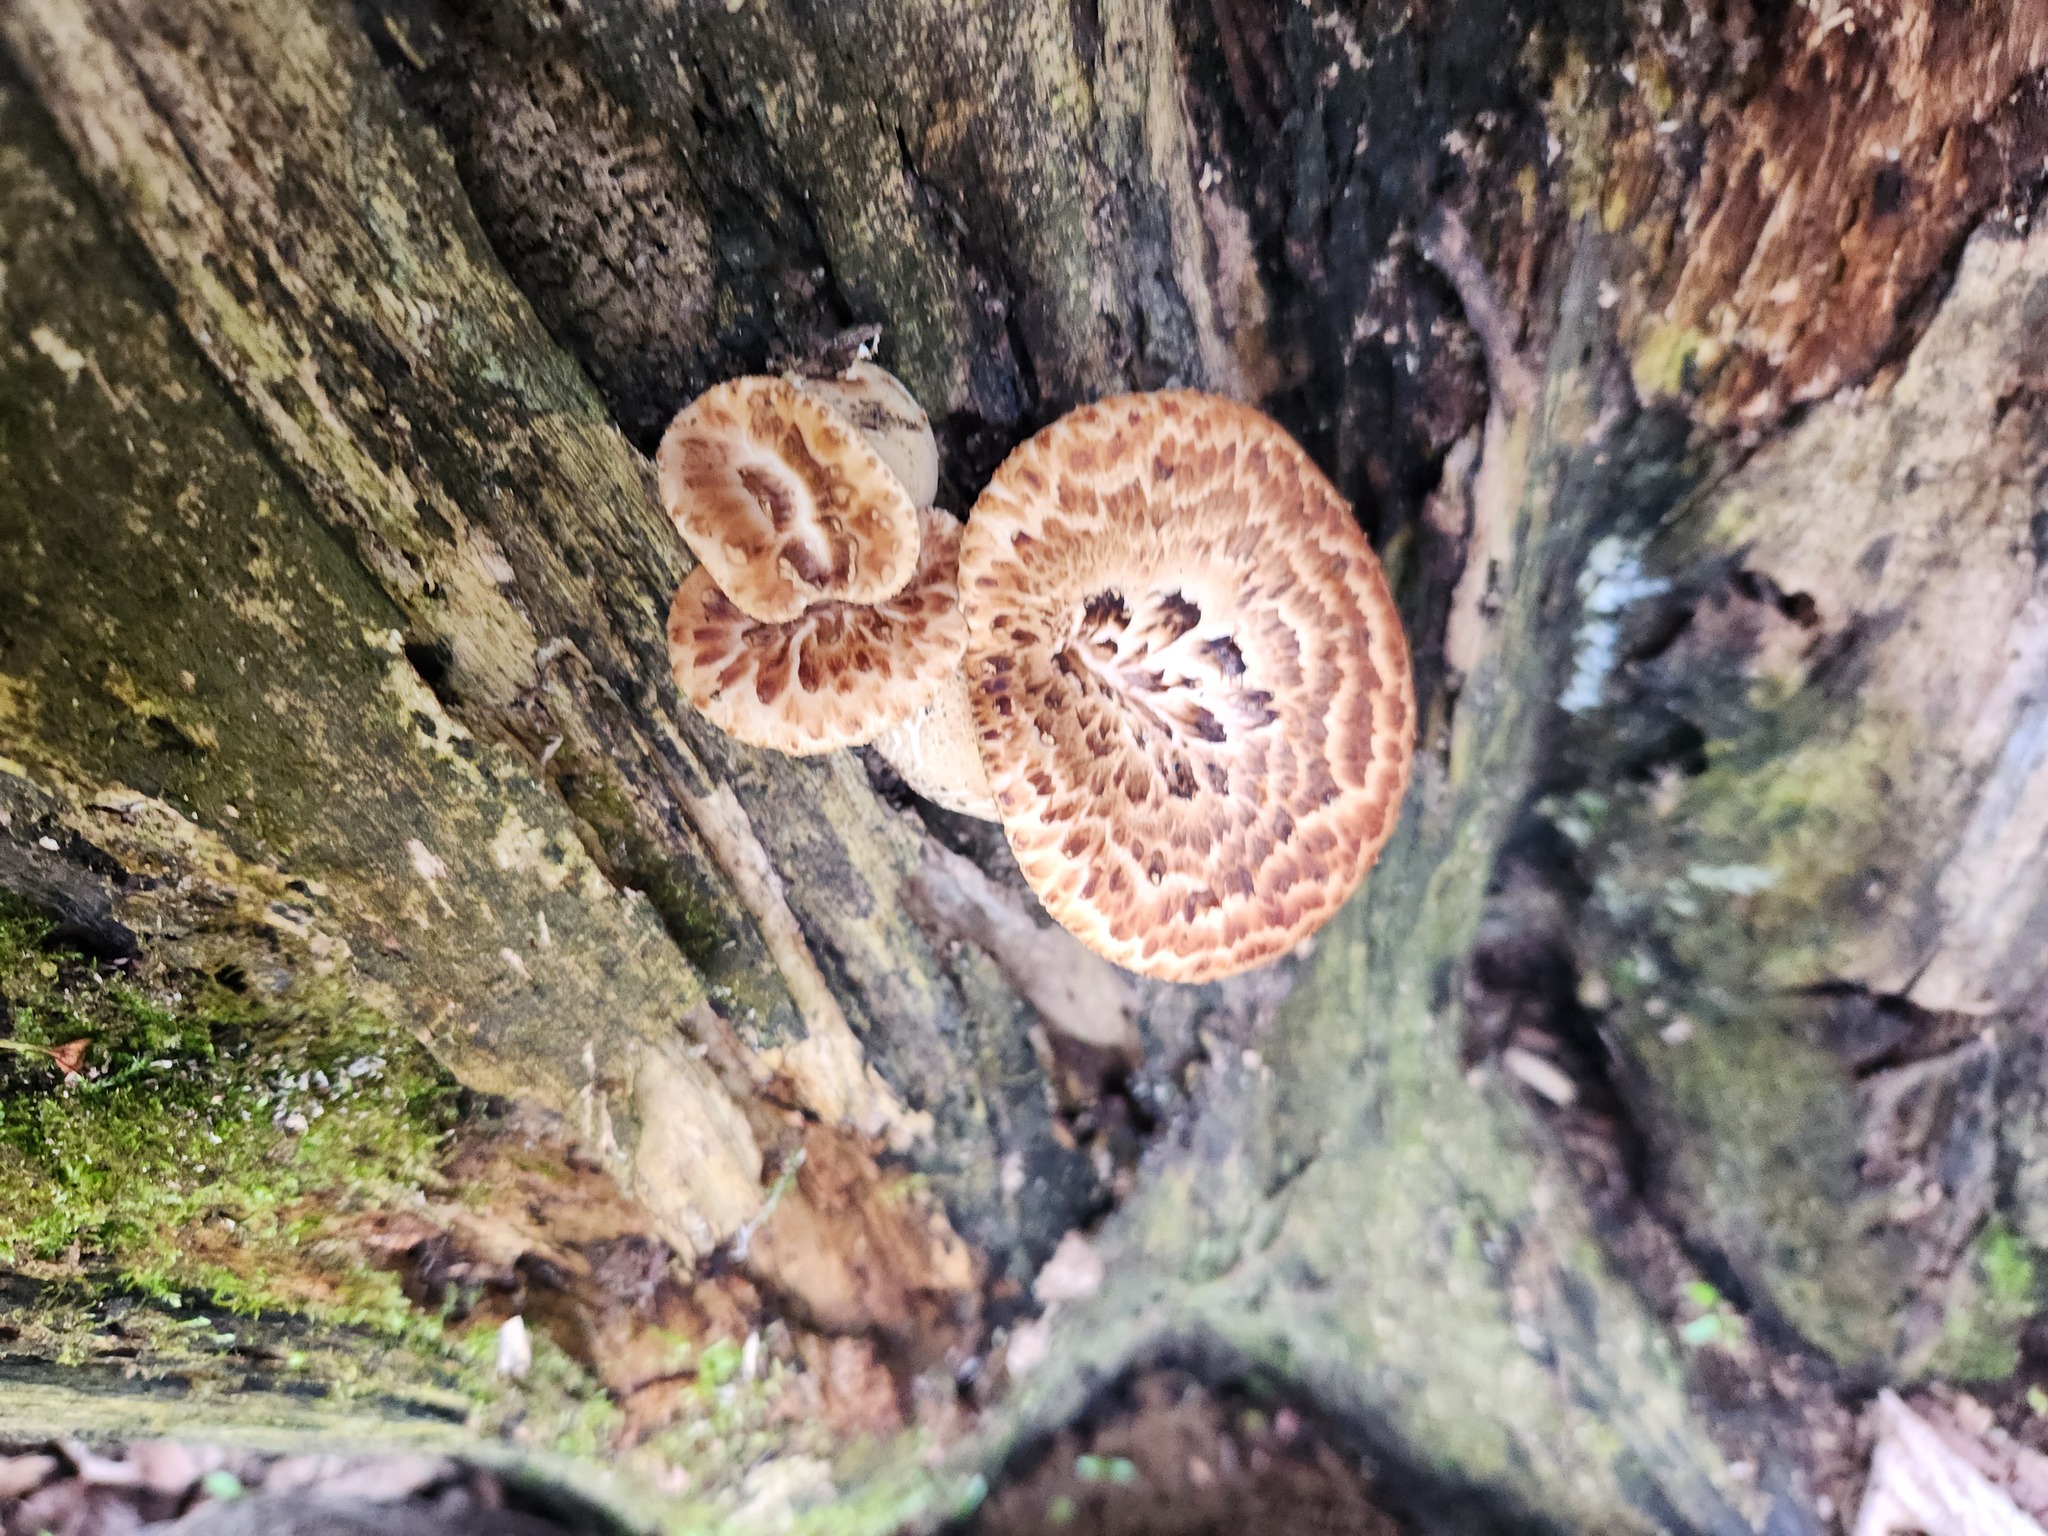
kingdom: Fungi
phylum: Basidiomycota
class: Agaricomycetes
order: Polyporales
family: Polyporaceae
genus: Cerioporus
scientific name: Cerioporus squamosus
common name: Dryad's saddle
